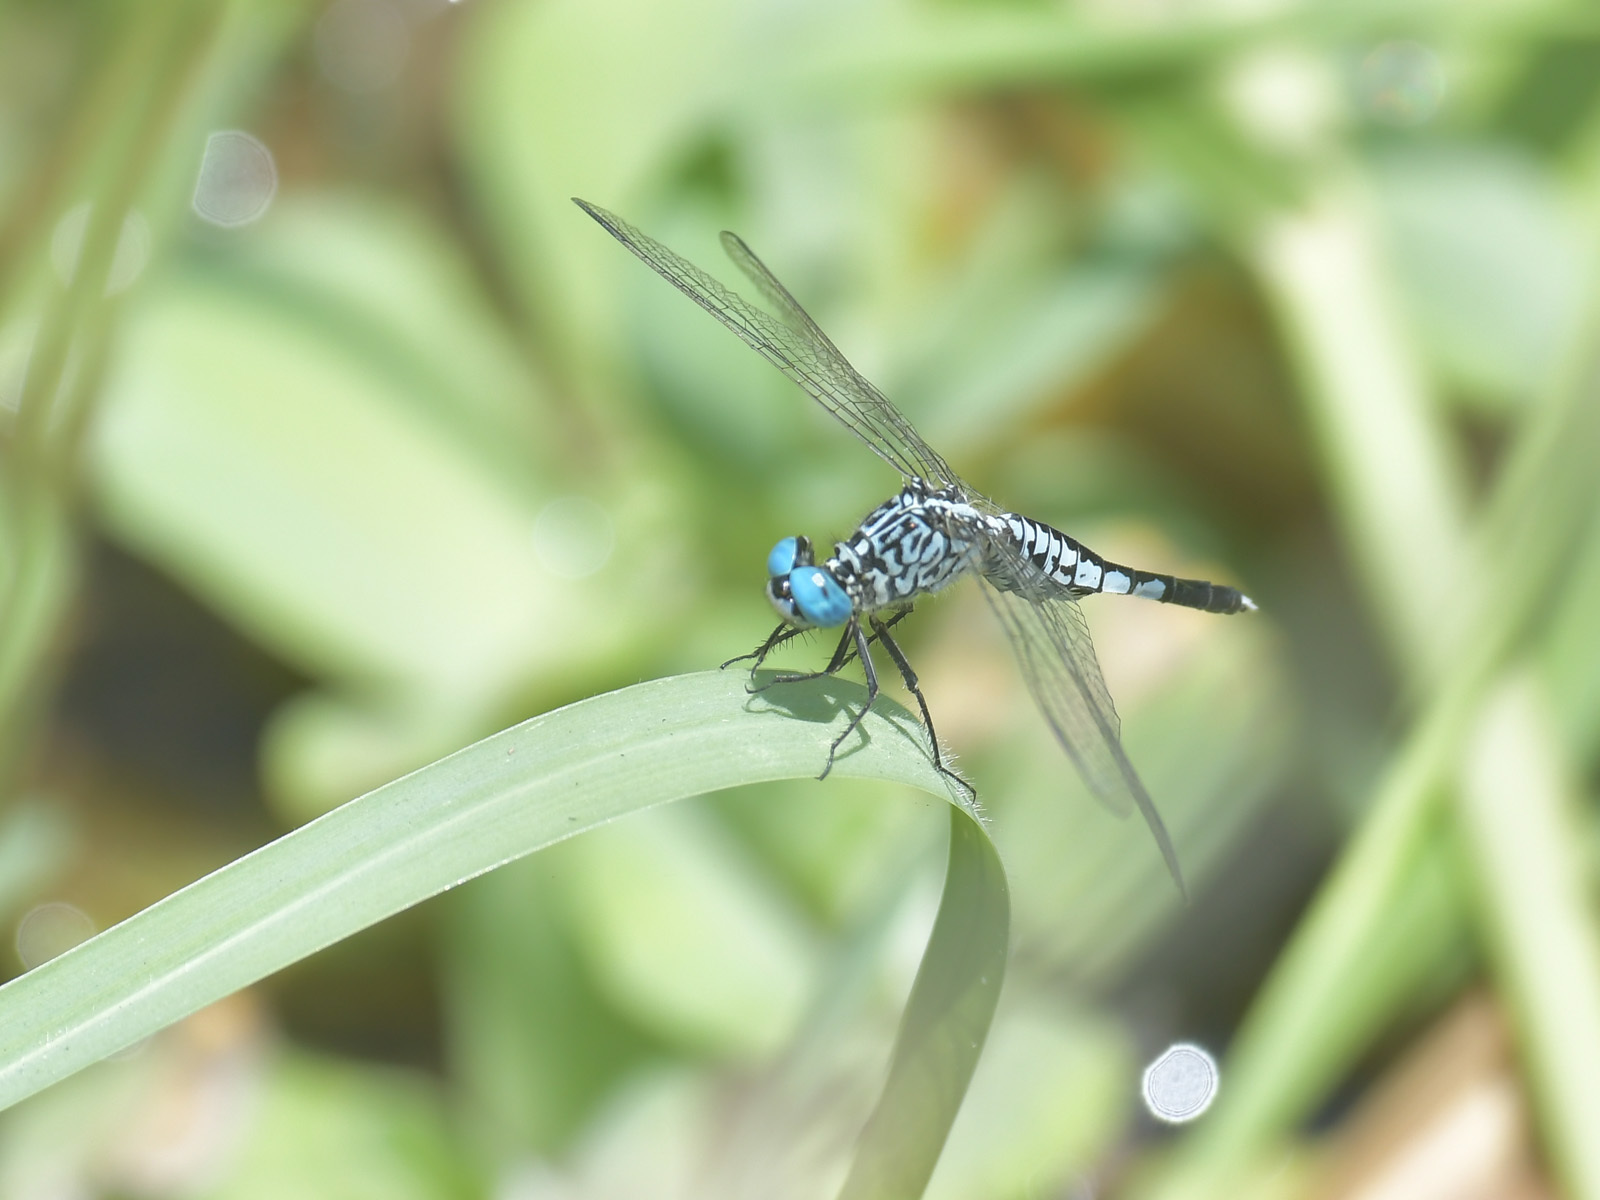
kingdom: Animalia
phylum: Arthropoda
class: Insecta
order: Odonata
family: Libellulidae
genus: Acisoma
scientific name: Acisoma panorpoides
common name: Asian pintail
